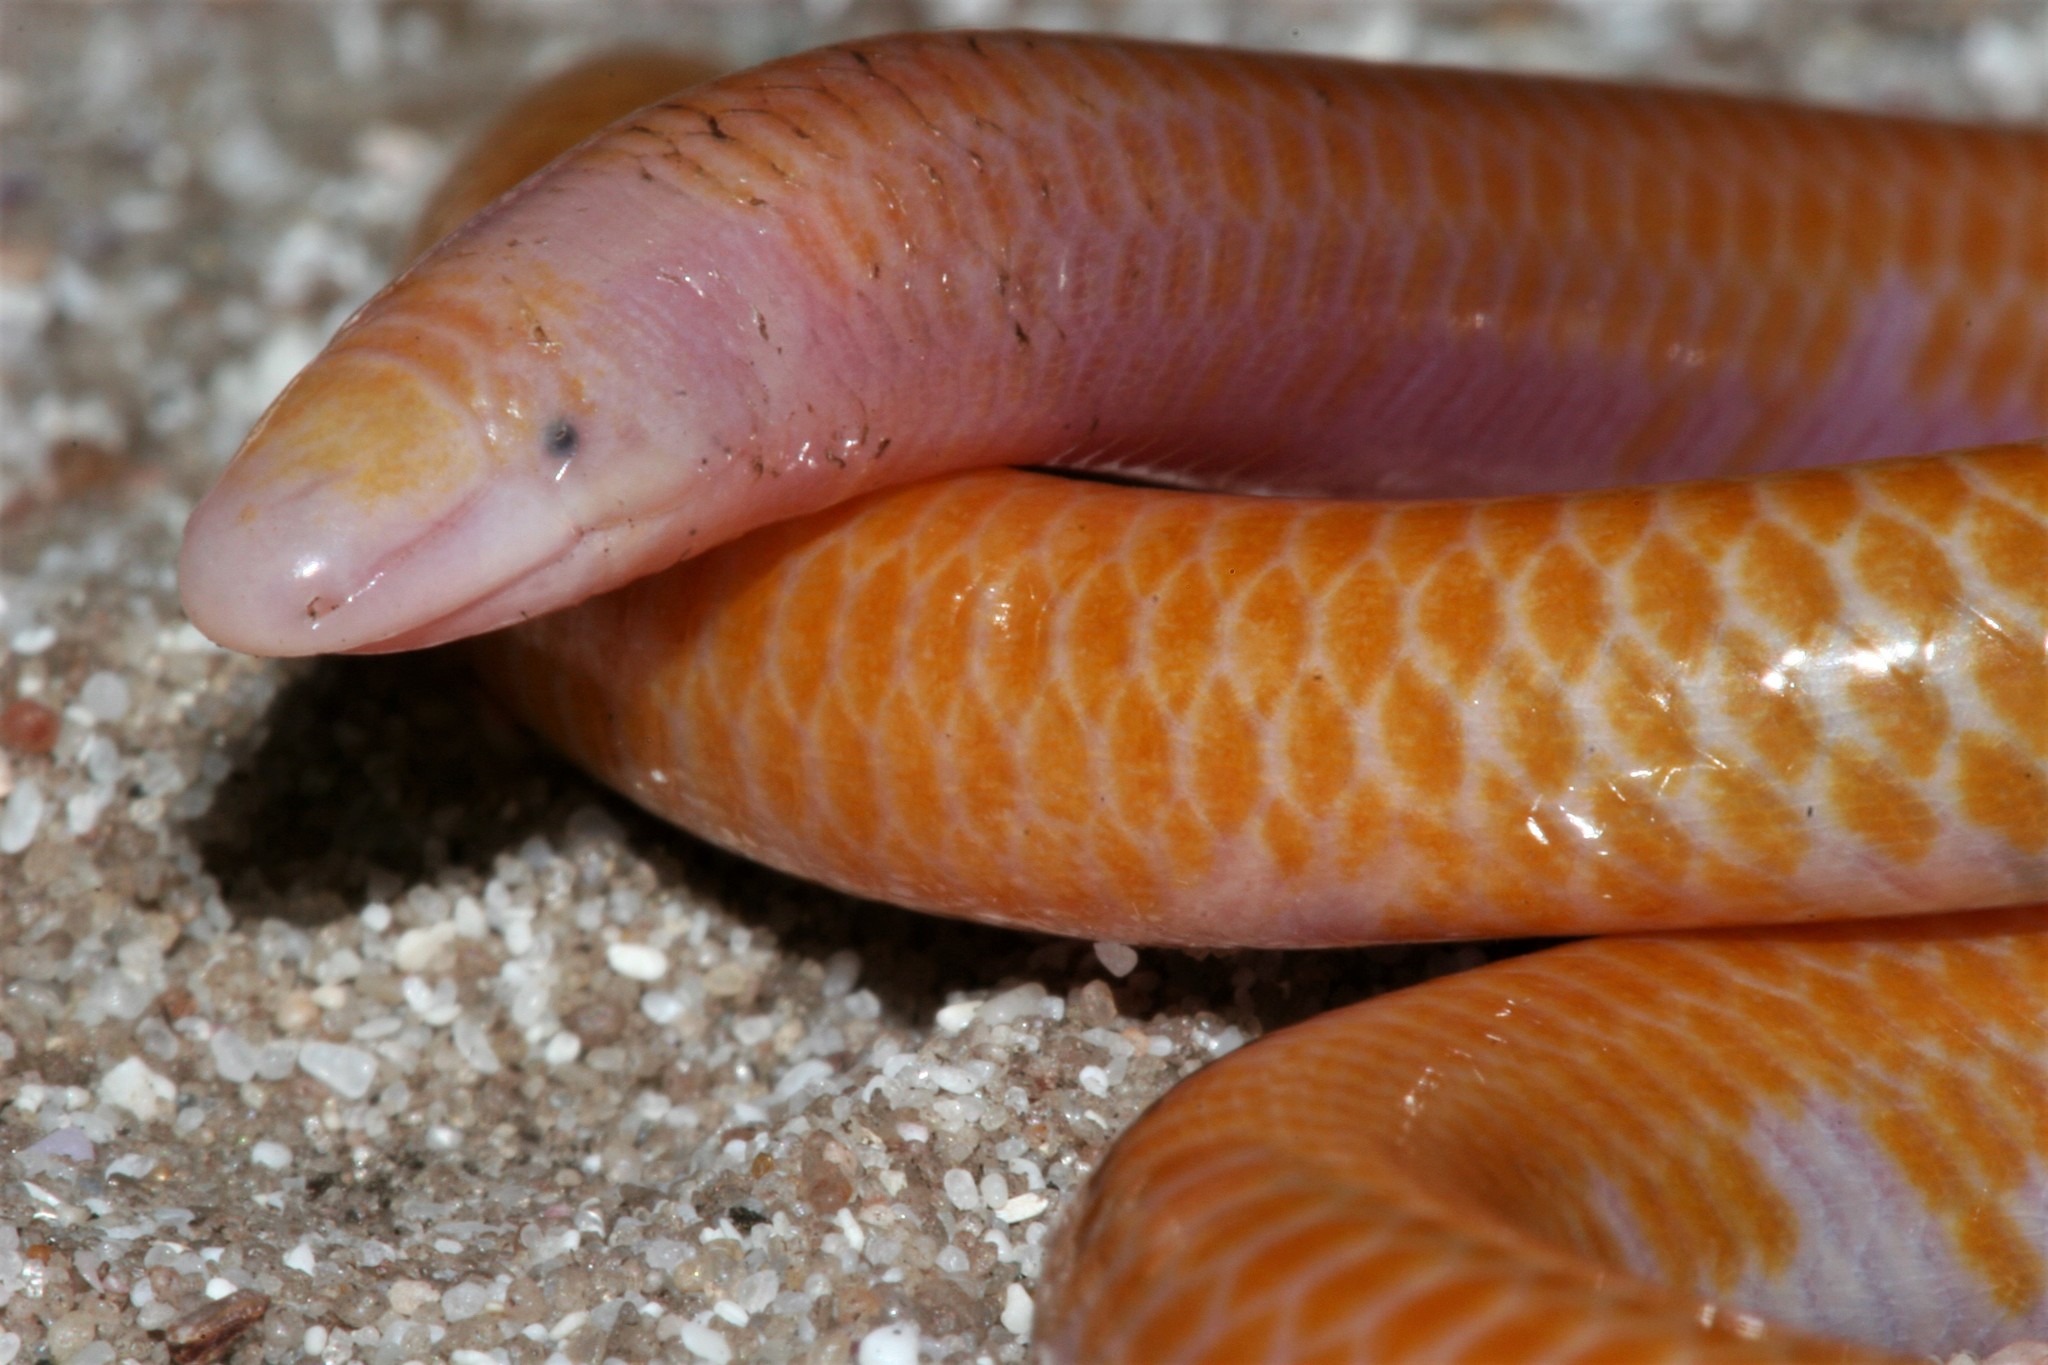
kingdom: Animalia
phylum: Chordata
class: Squamata
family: Scincidae
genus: Typhlosaurus
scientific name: Typhlosaurus caecus
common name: Cuvier's legless skink
